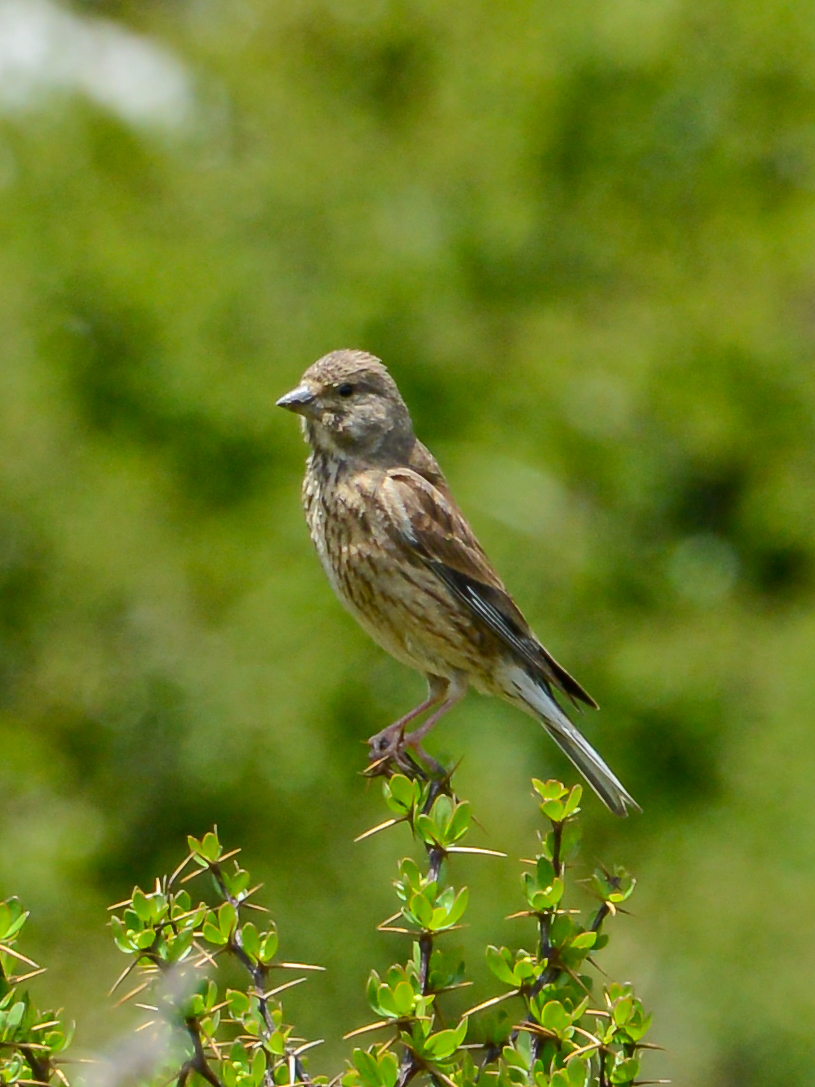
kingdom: Animalia
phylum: Chordata
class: Aves
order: Passeriformes
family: Fringillidae
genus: Linaria
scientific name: Linaria cannabina
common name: Common linnet
